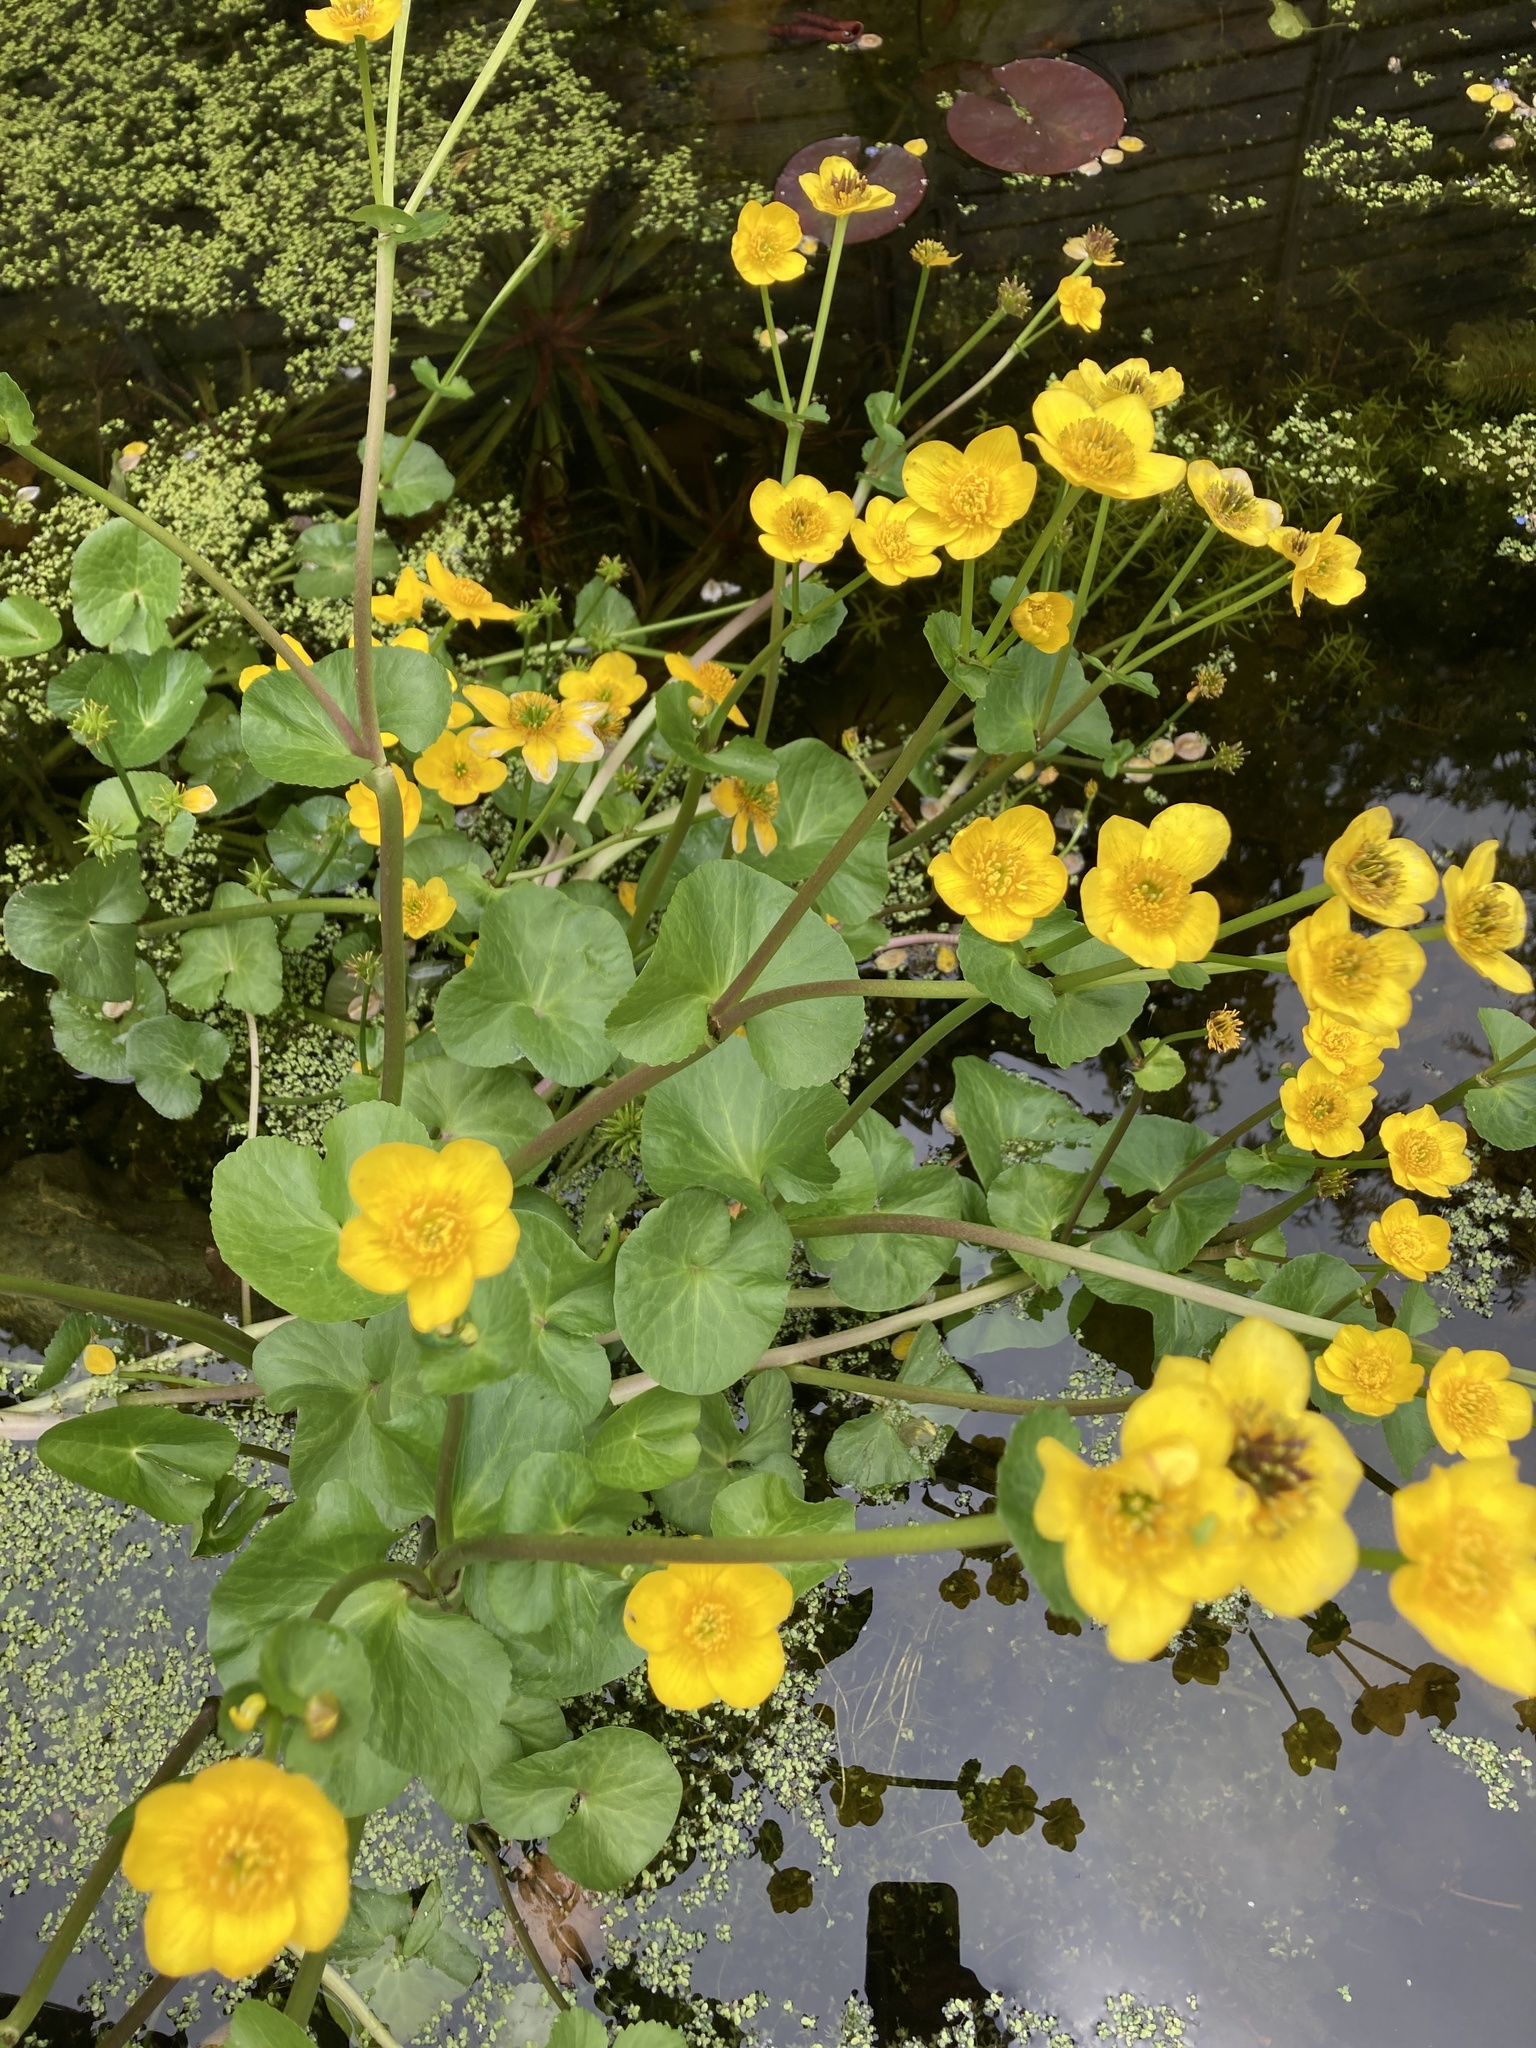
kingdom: Plantae
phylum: Tracheophyta
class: Magnoliopsida
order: Ranunculales
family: Ranunculaceae
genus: Caltha
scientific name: Caltha palustris
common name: Marsh marigold
